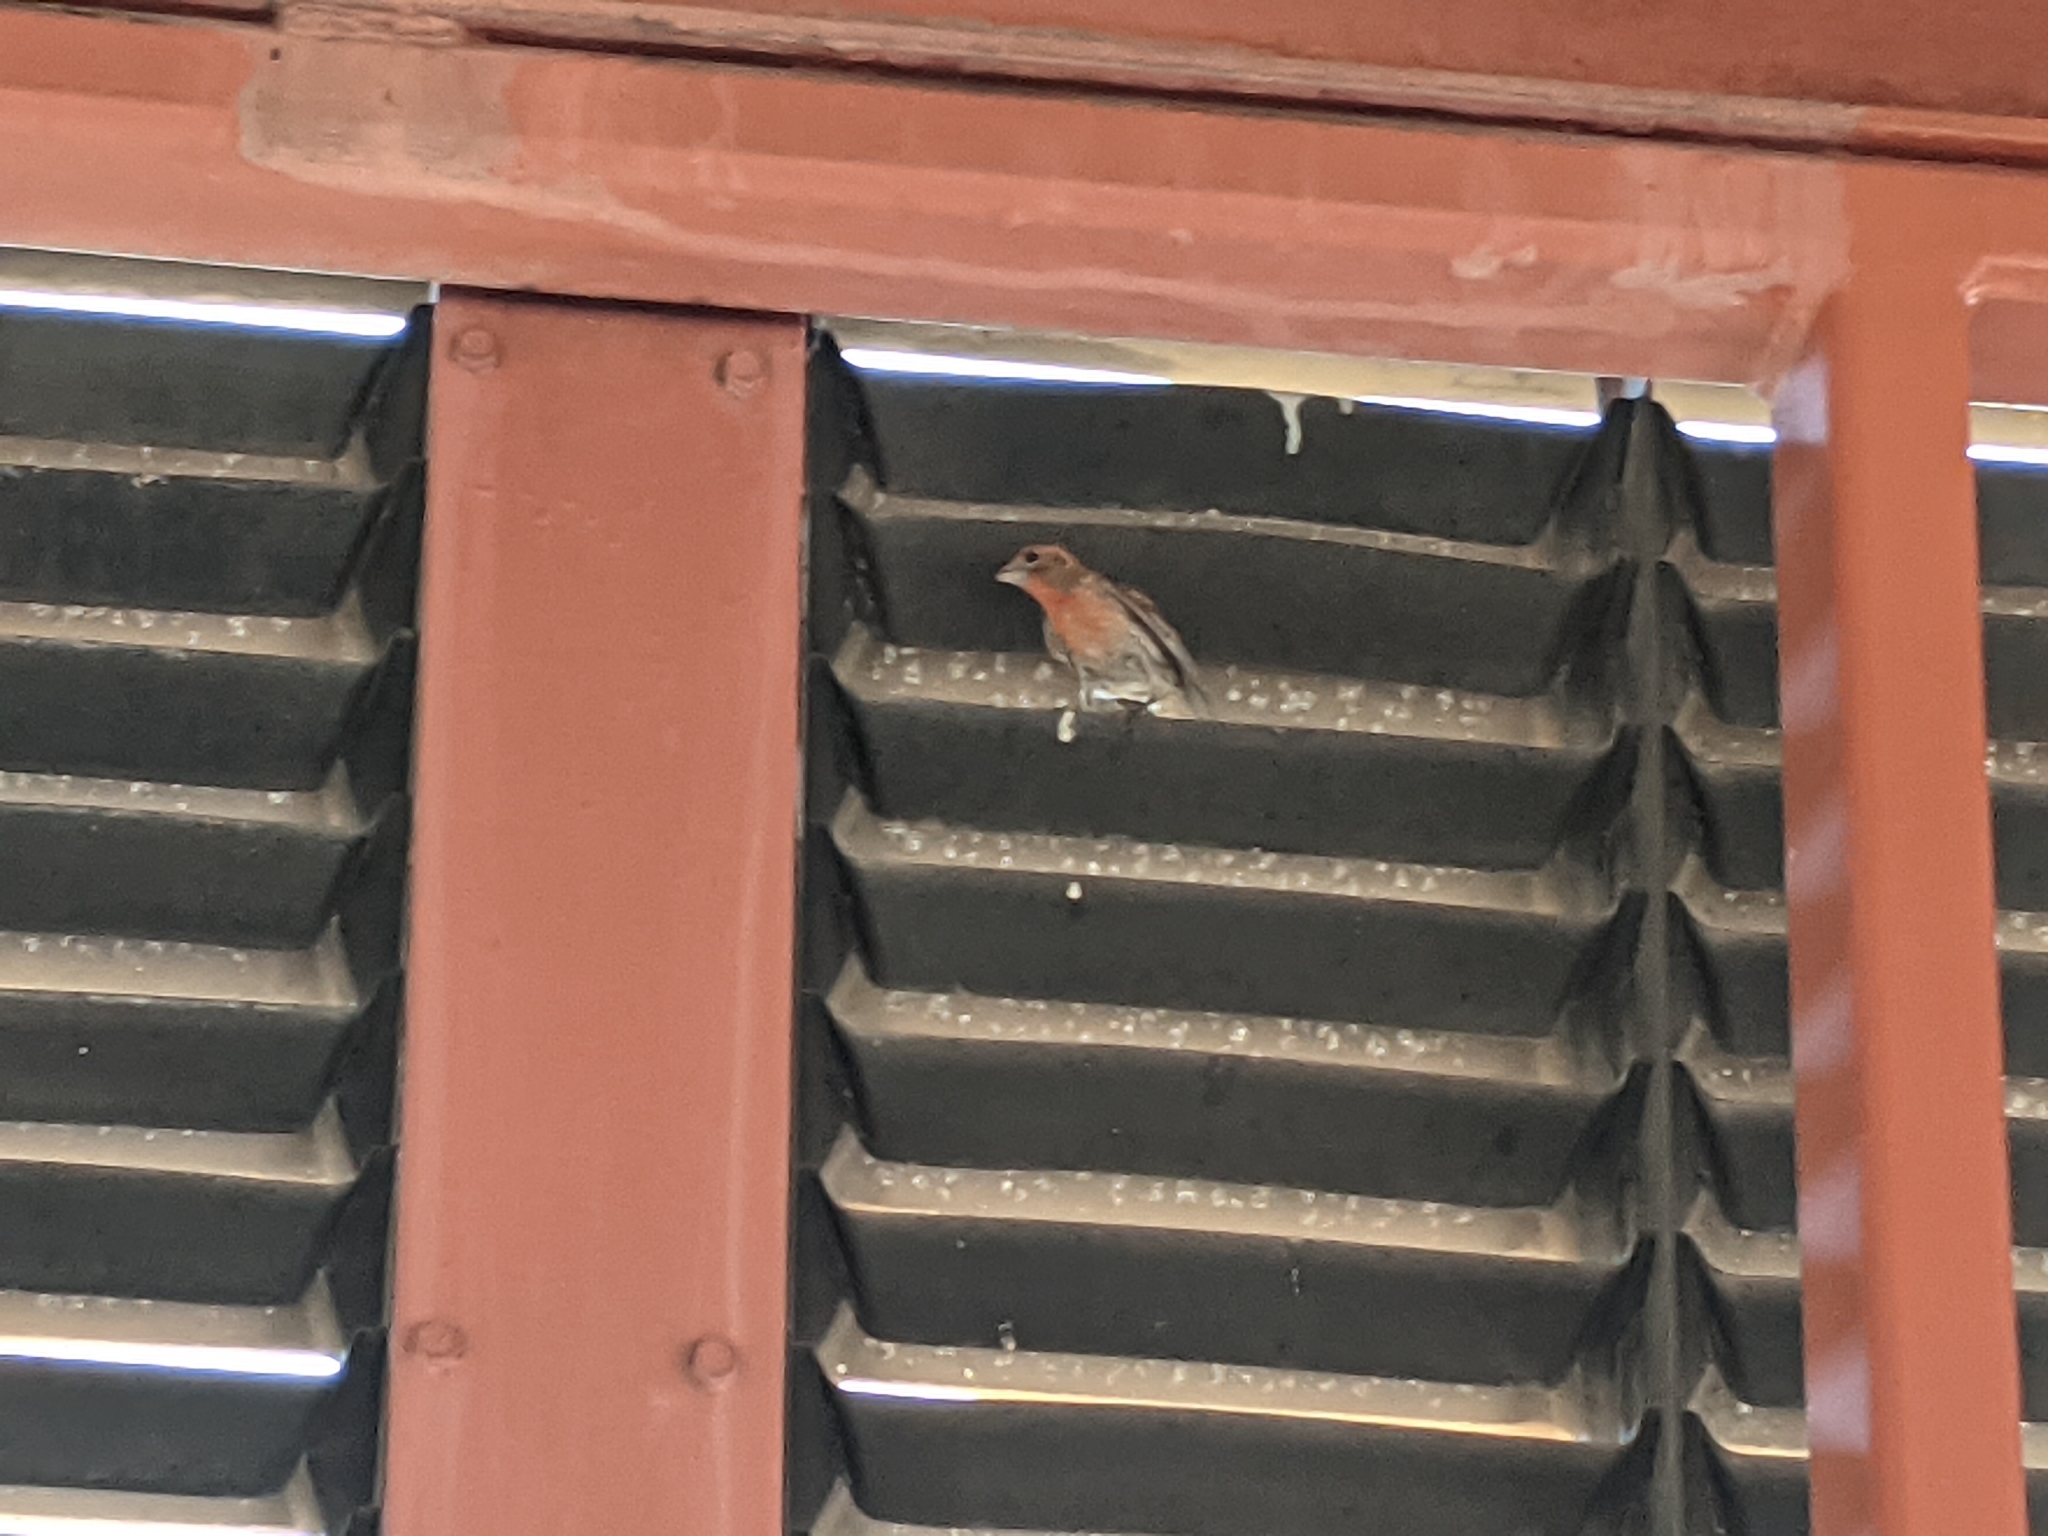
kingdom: Animalia
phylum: Chordata
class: Aves
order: Passeriformes
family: Fringillidae
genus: Haemorhous
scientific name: Haemorhous mexicanus
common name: House finch
